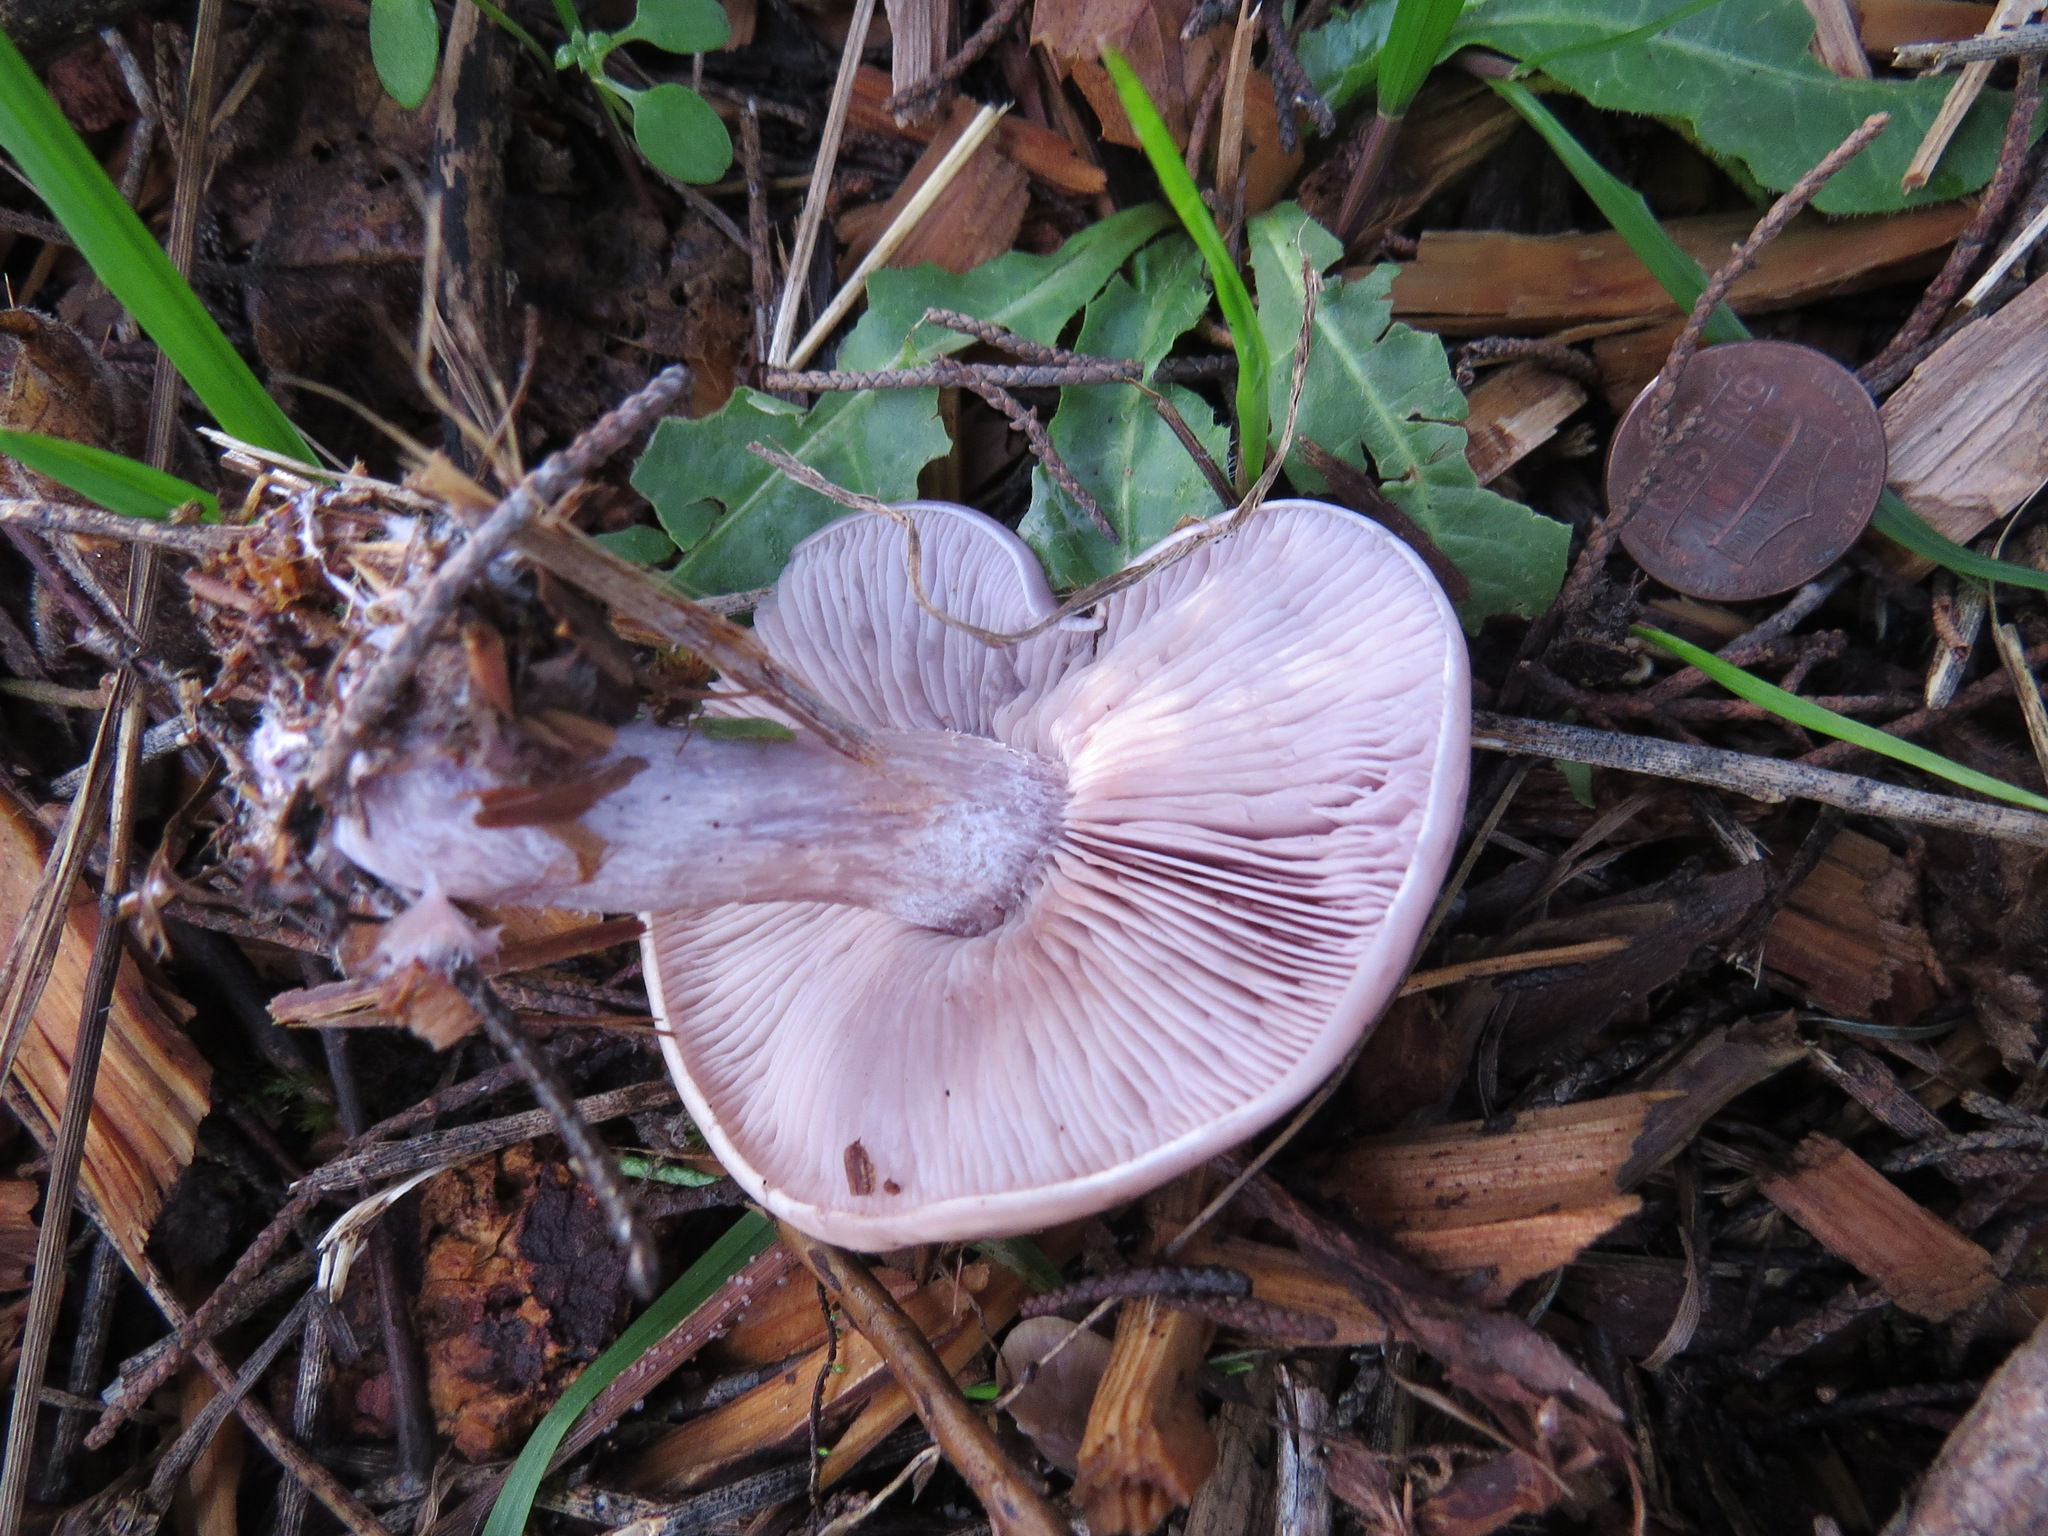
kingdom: Fungi
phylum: Basidiomycota
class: Agaricomycetes
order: Agaricales
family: Tricholomataceae
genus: Collybia
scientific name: Collybia
